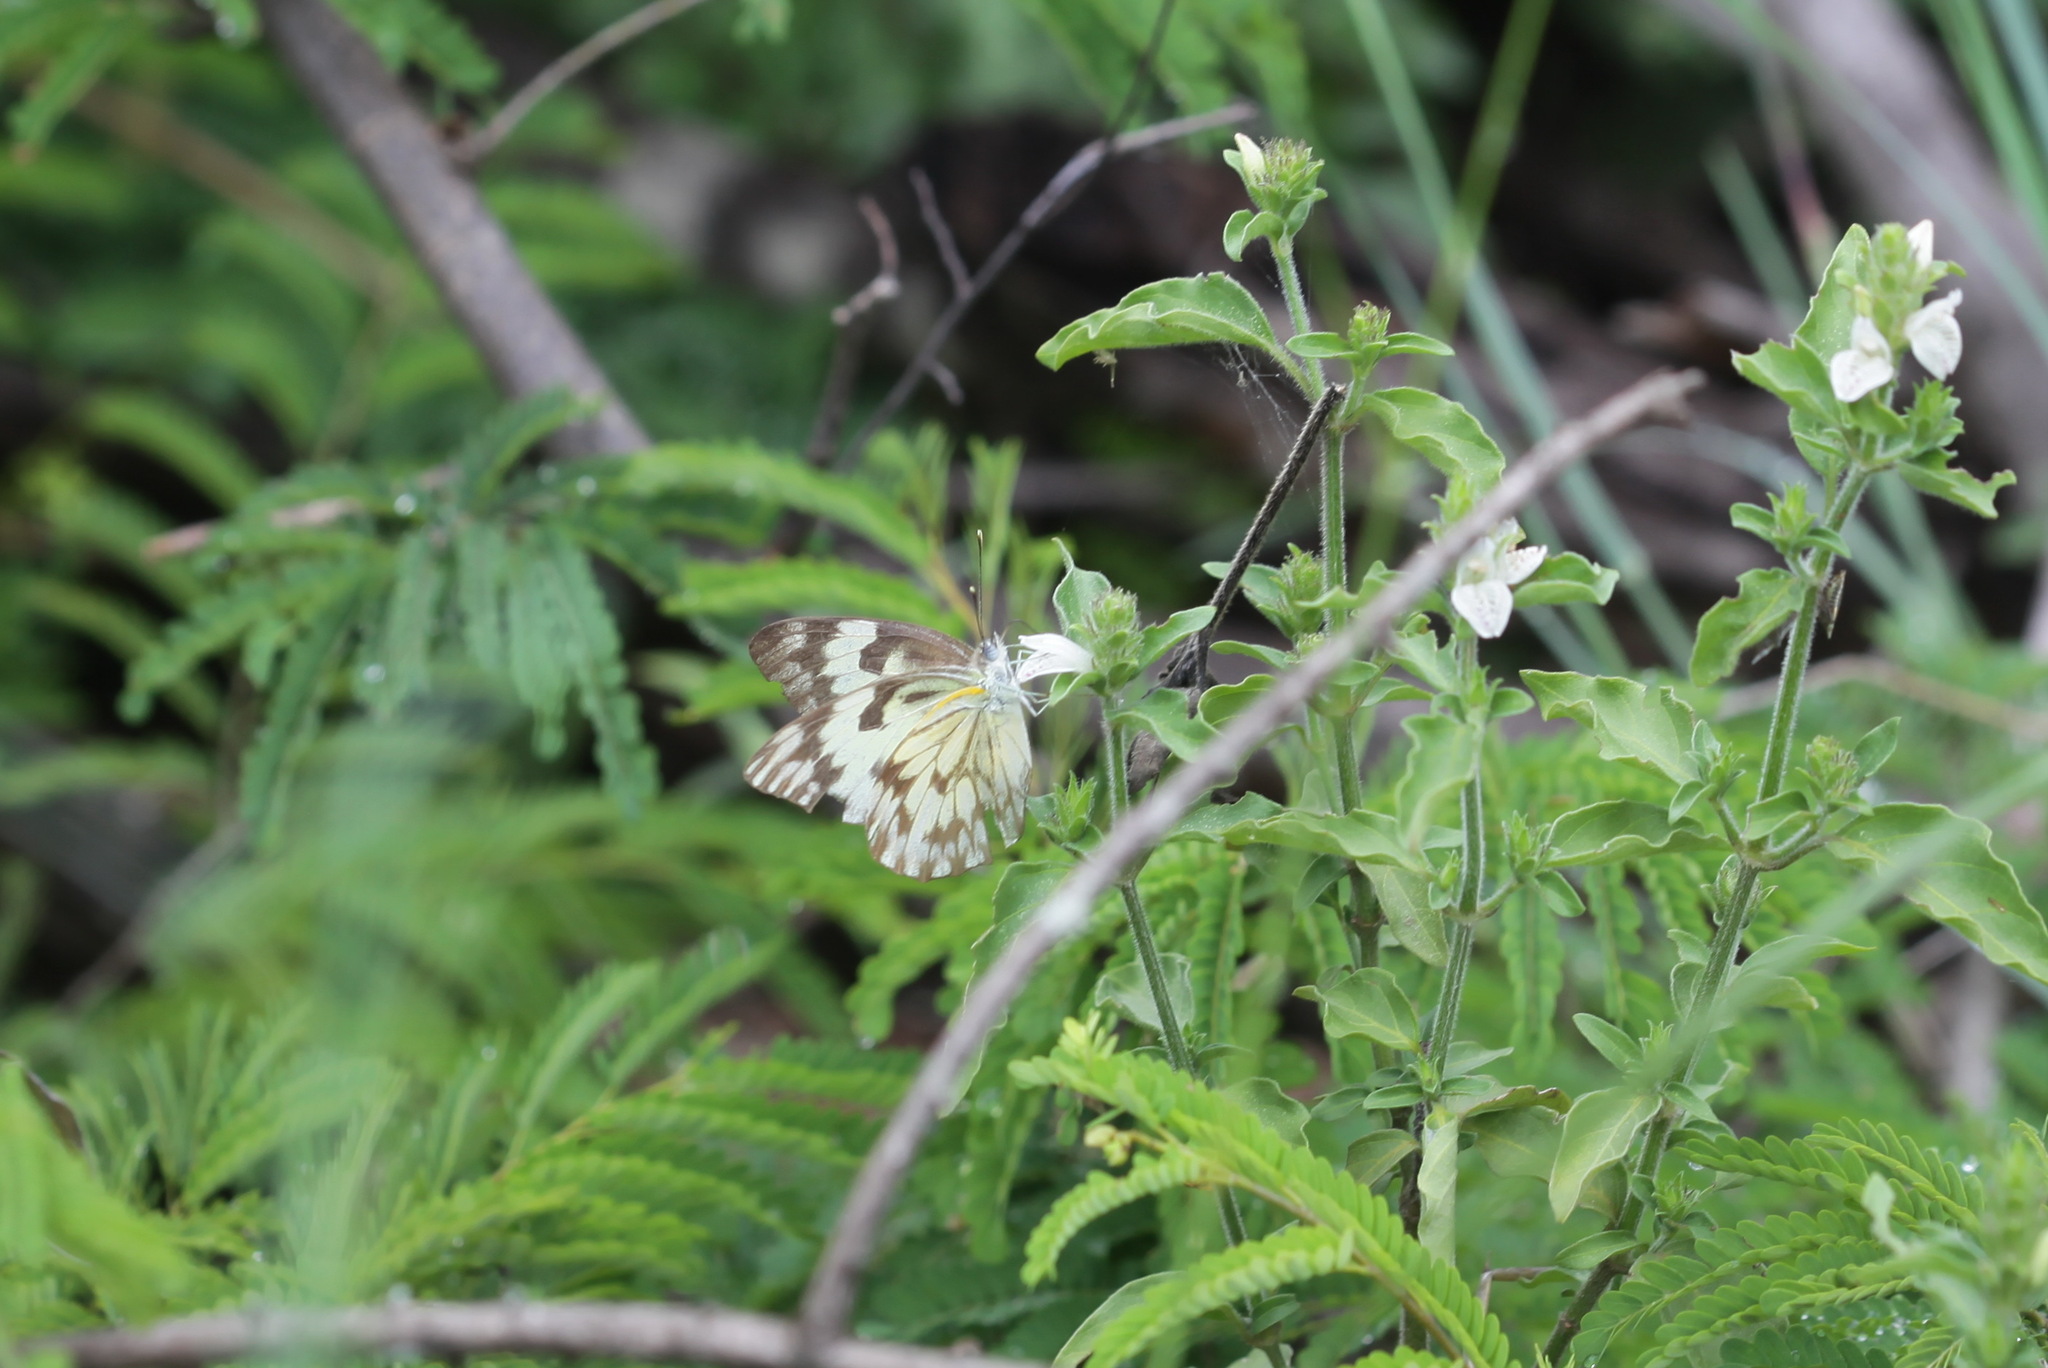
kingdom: Animalia
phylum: Arthropoda
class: Insecta
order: Lepidoptera
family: Pieridae
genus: Belenois
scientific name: Belenois gidica
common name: Pointed caper white
